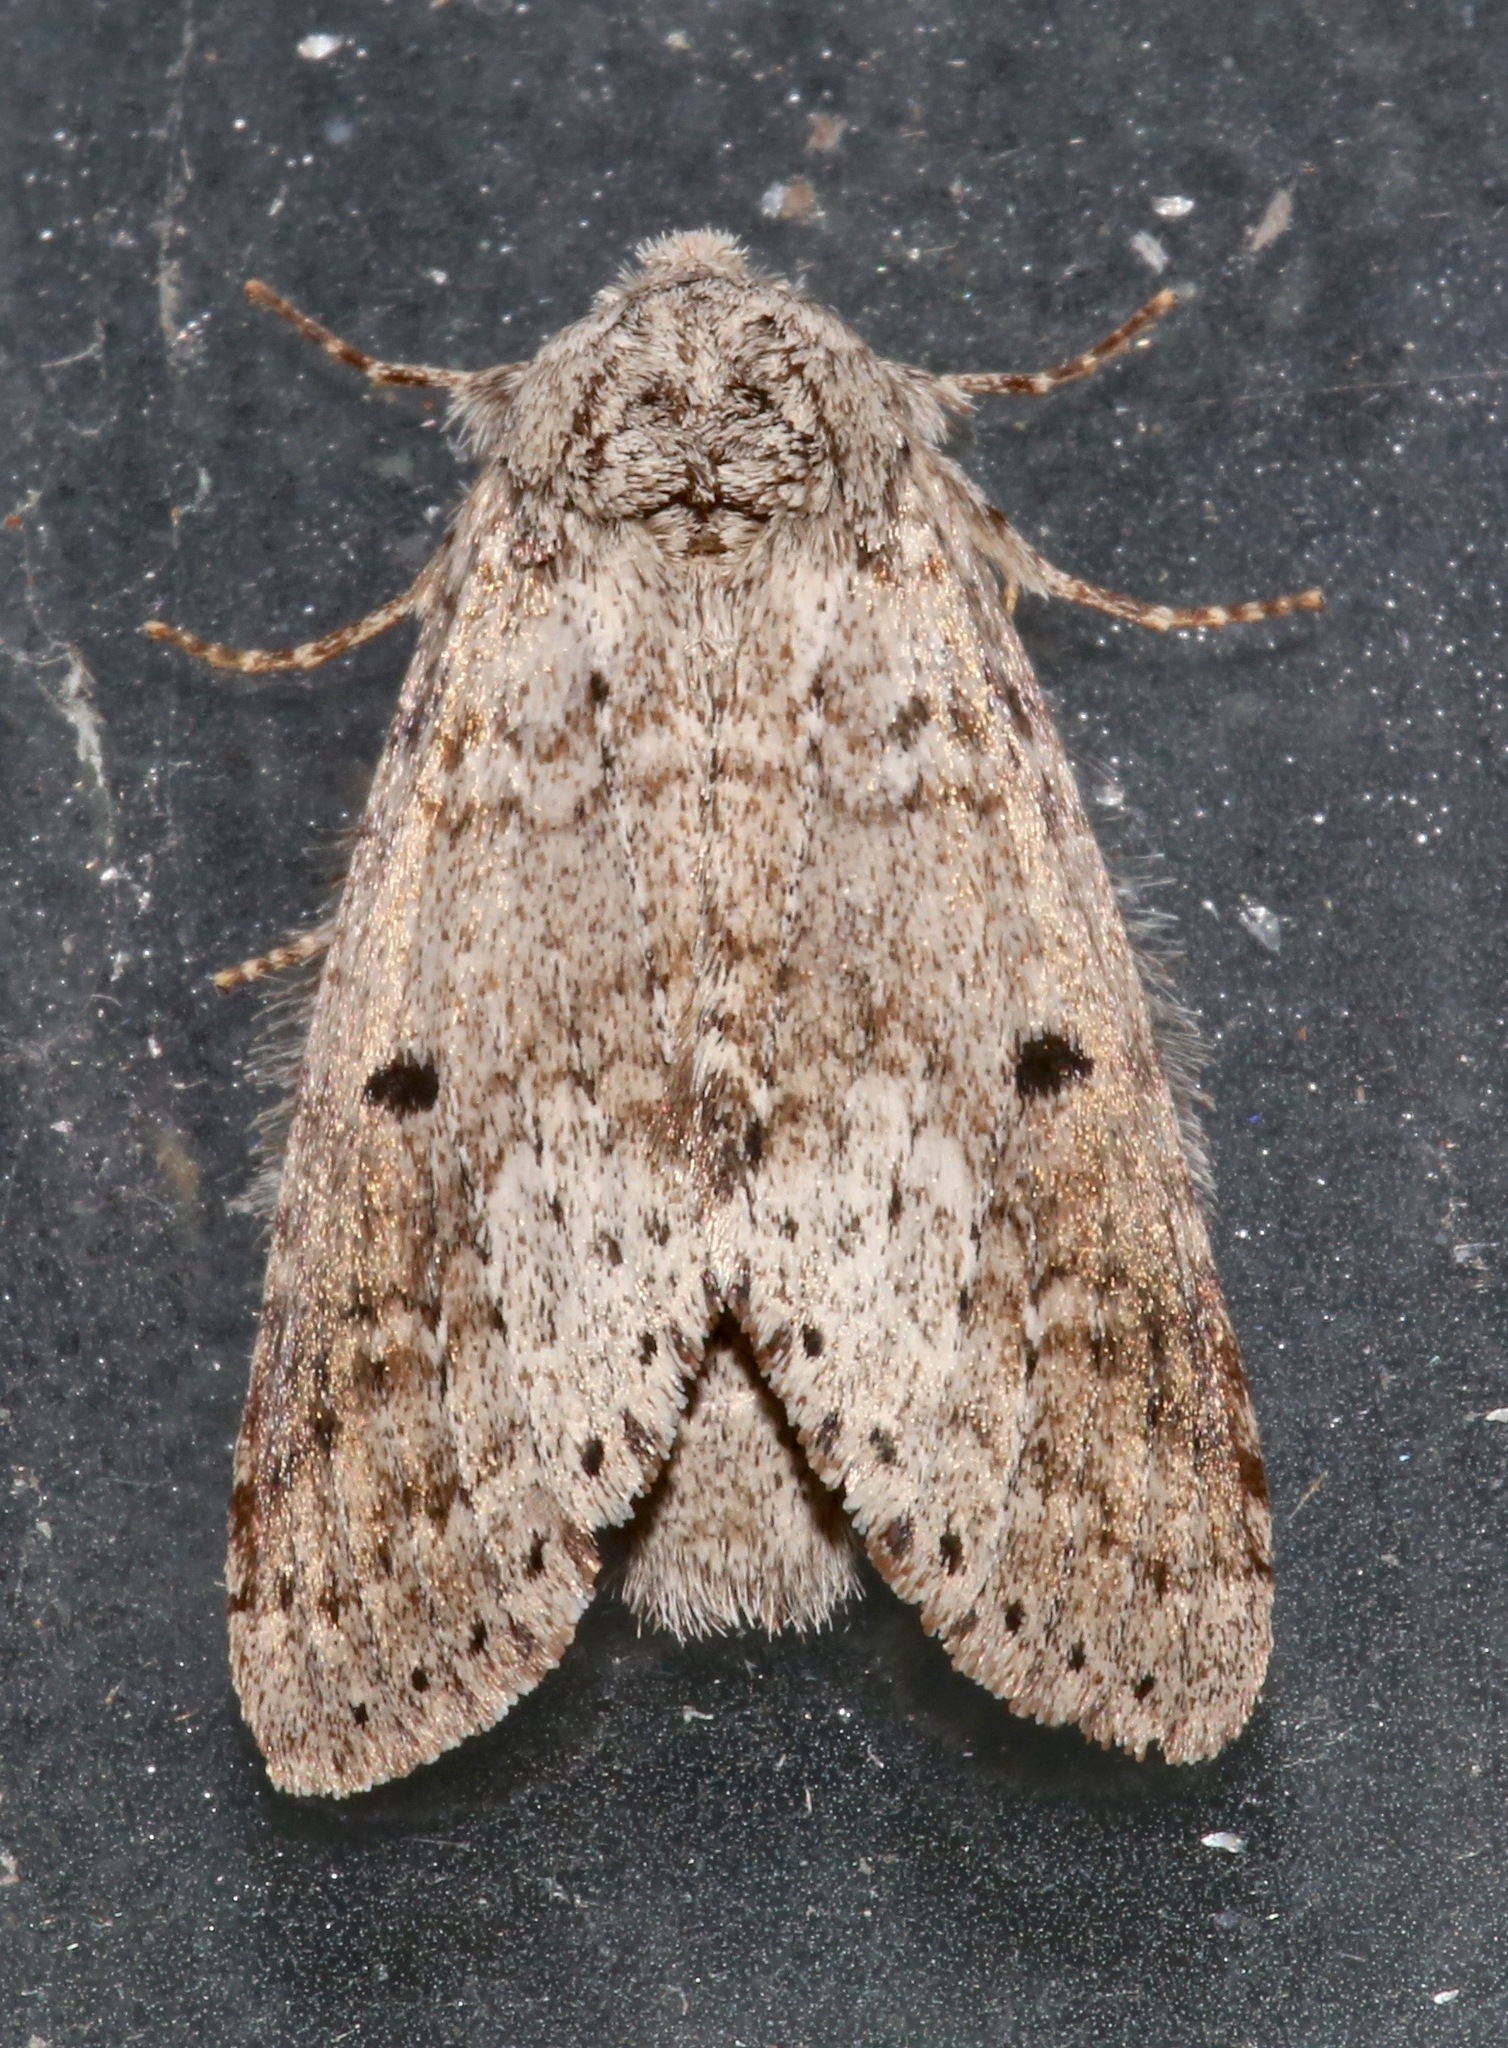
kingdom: Animalia
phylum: Arthropoda
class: Insecta
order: Lepidoptera
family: Notodontidae
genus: Lochmaeus
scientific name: Lochmaeus manteo
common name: Variable oakleaf caterpillar moth
